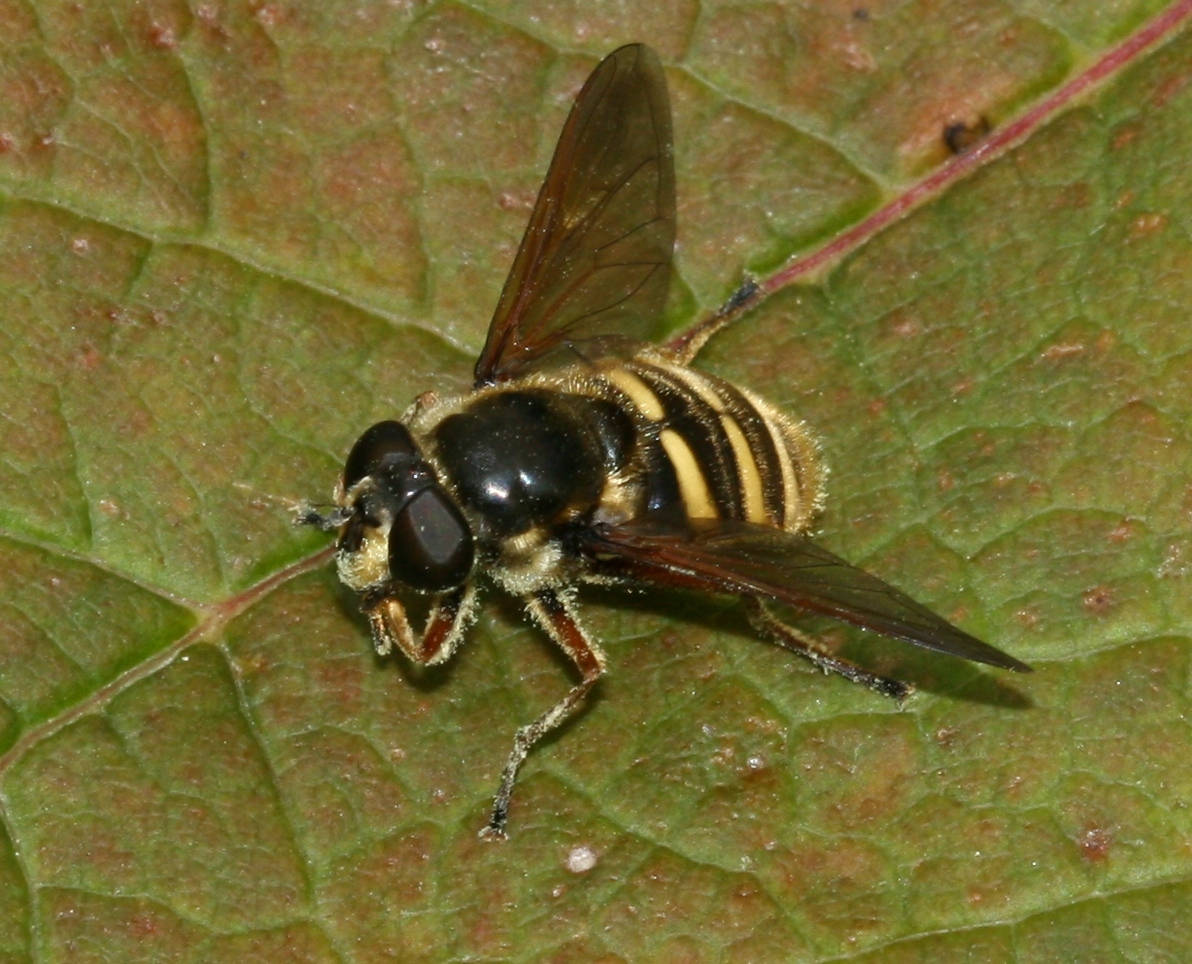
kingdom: Animalia
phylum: Arthropoda
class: Insecta
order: Diptera
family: Syrphidae
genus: Sericomyia
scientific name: Sericomyia silentis
